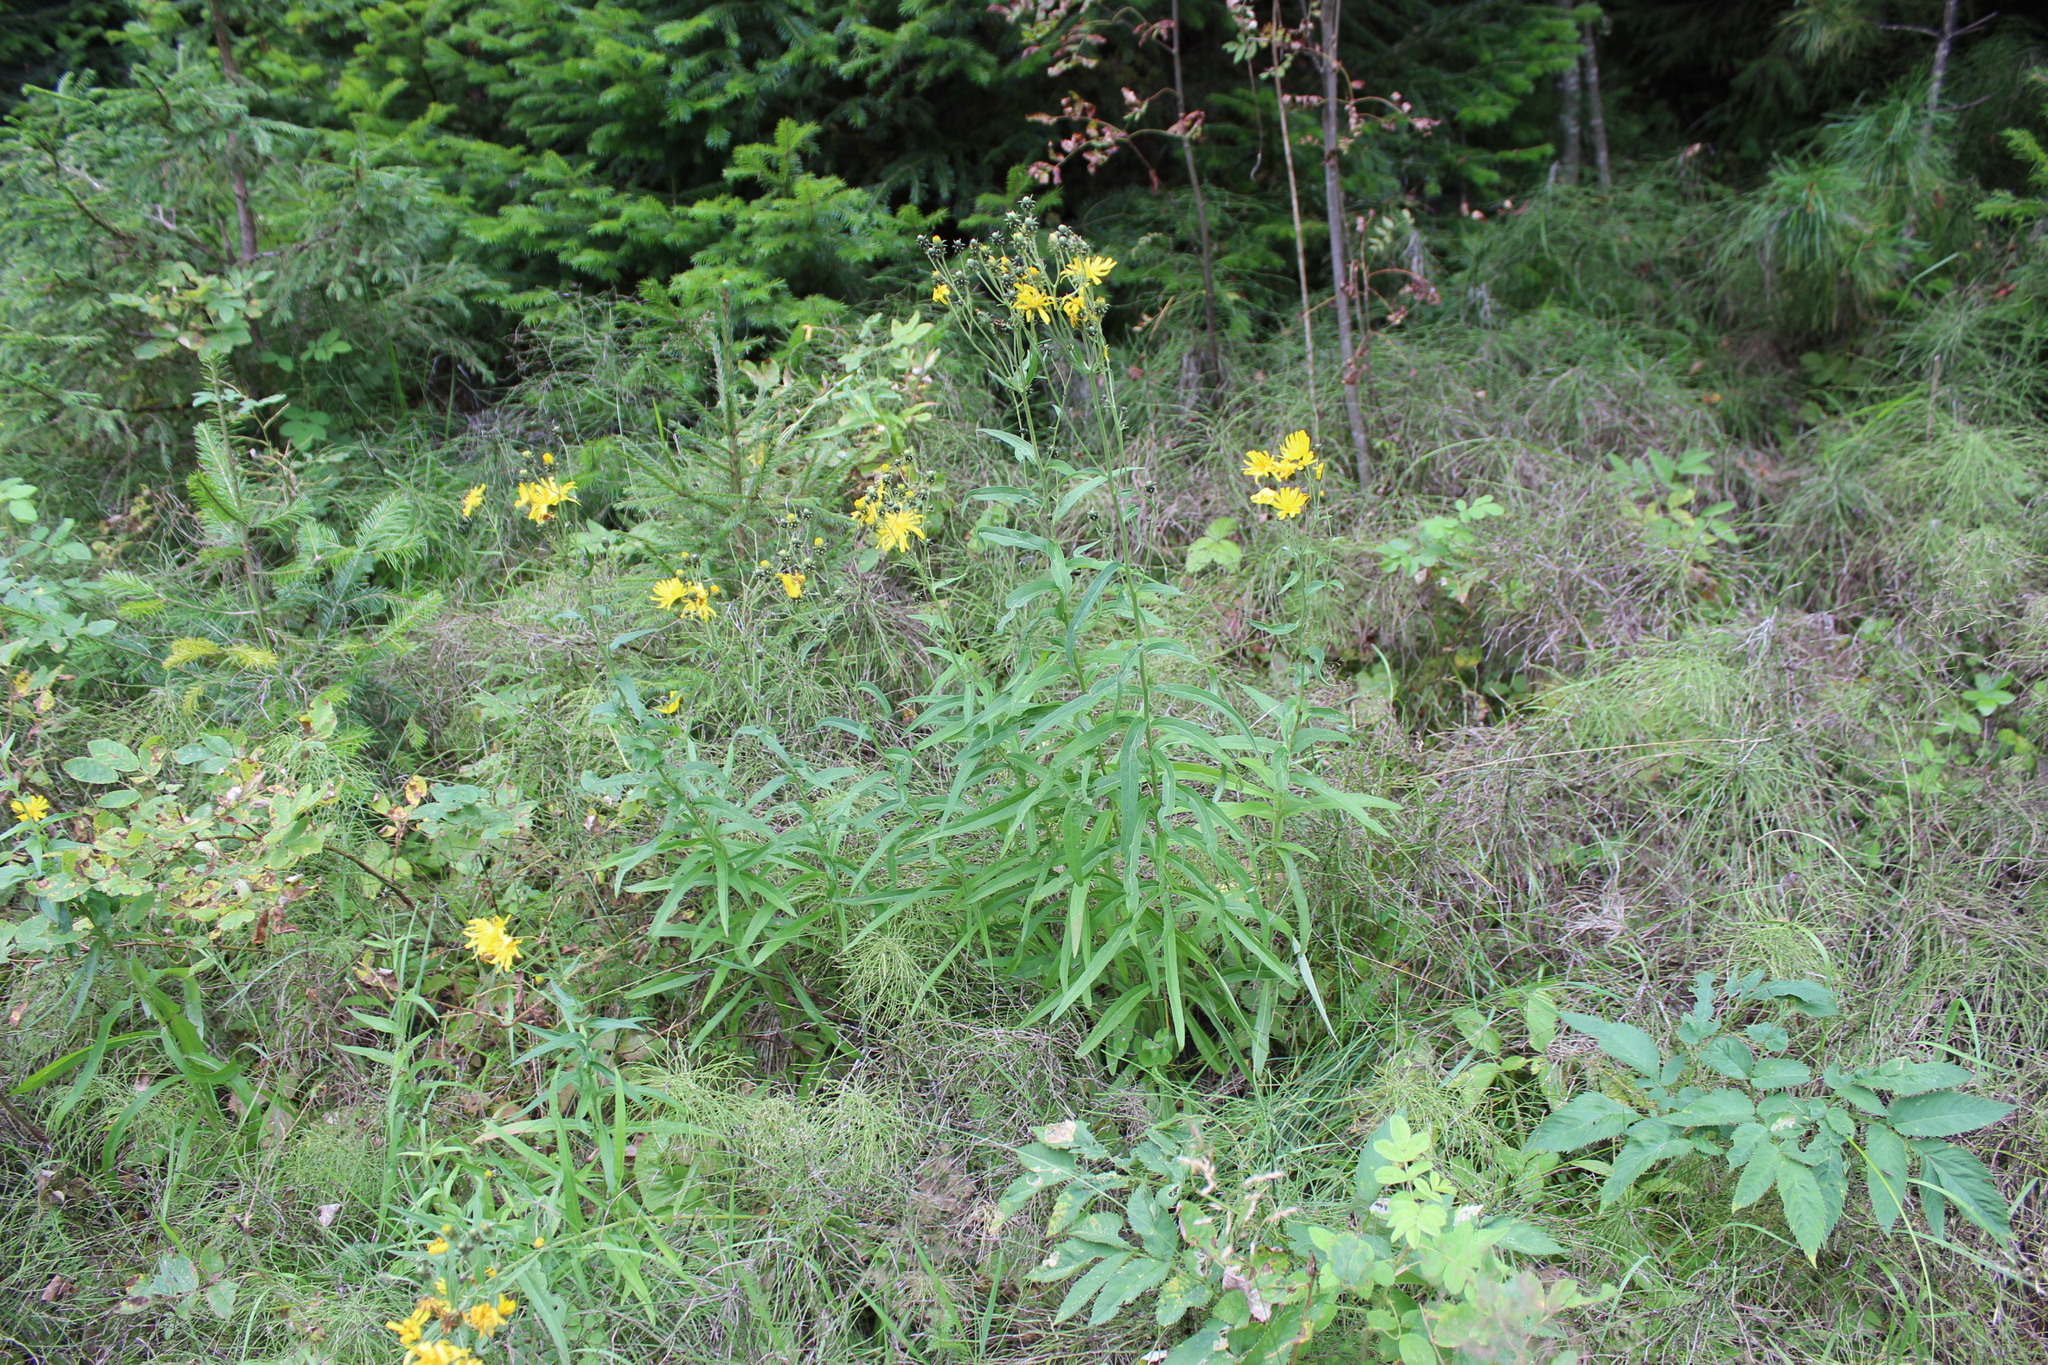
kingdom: Plantae
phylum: Tracheophyta
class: Magnoliopsida
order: Asterales
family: Asteraceae
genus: Hieracium
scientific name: Hieracium umbellatum
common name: Northern hawkweed
